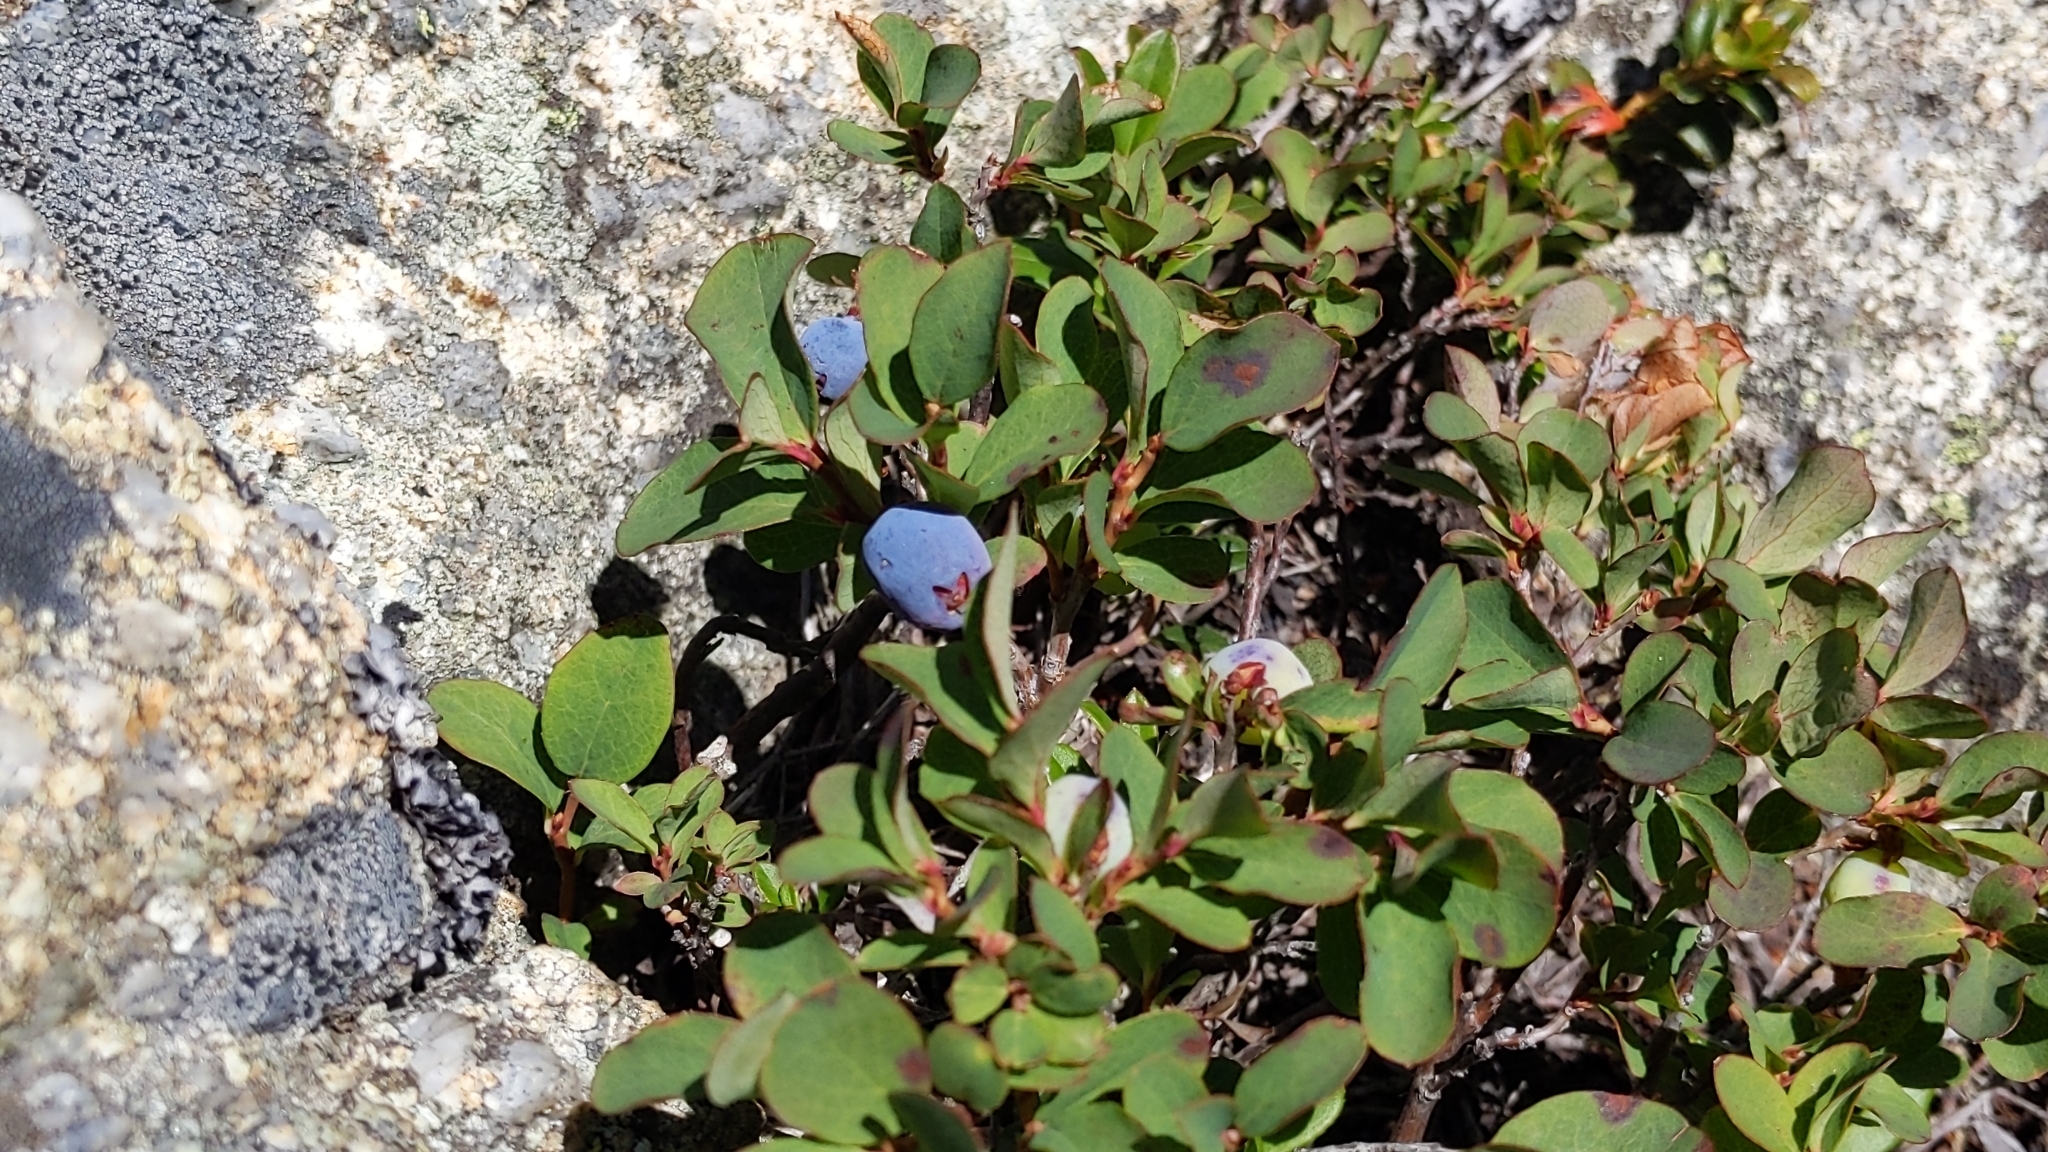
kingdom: Plantae
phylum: Tracheophyta
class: Magnoliopsida
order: Ericales
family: Ericaceae
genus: Vaccinium
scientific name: Vaccinium uliginosum
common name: Bog bilberry
